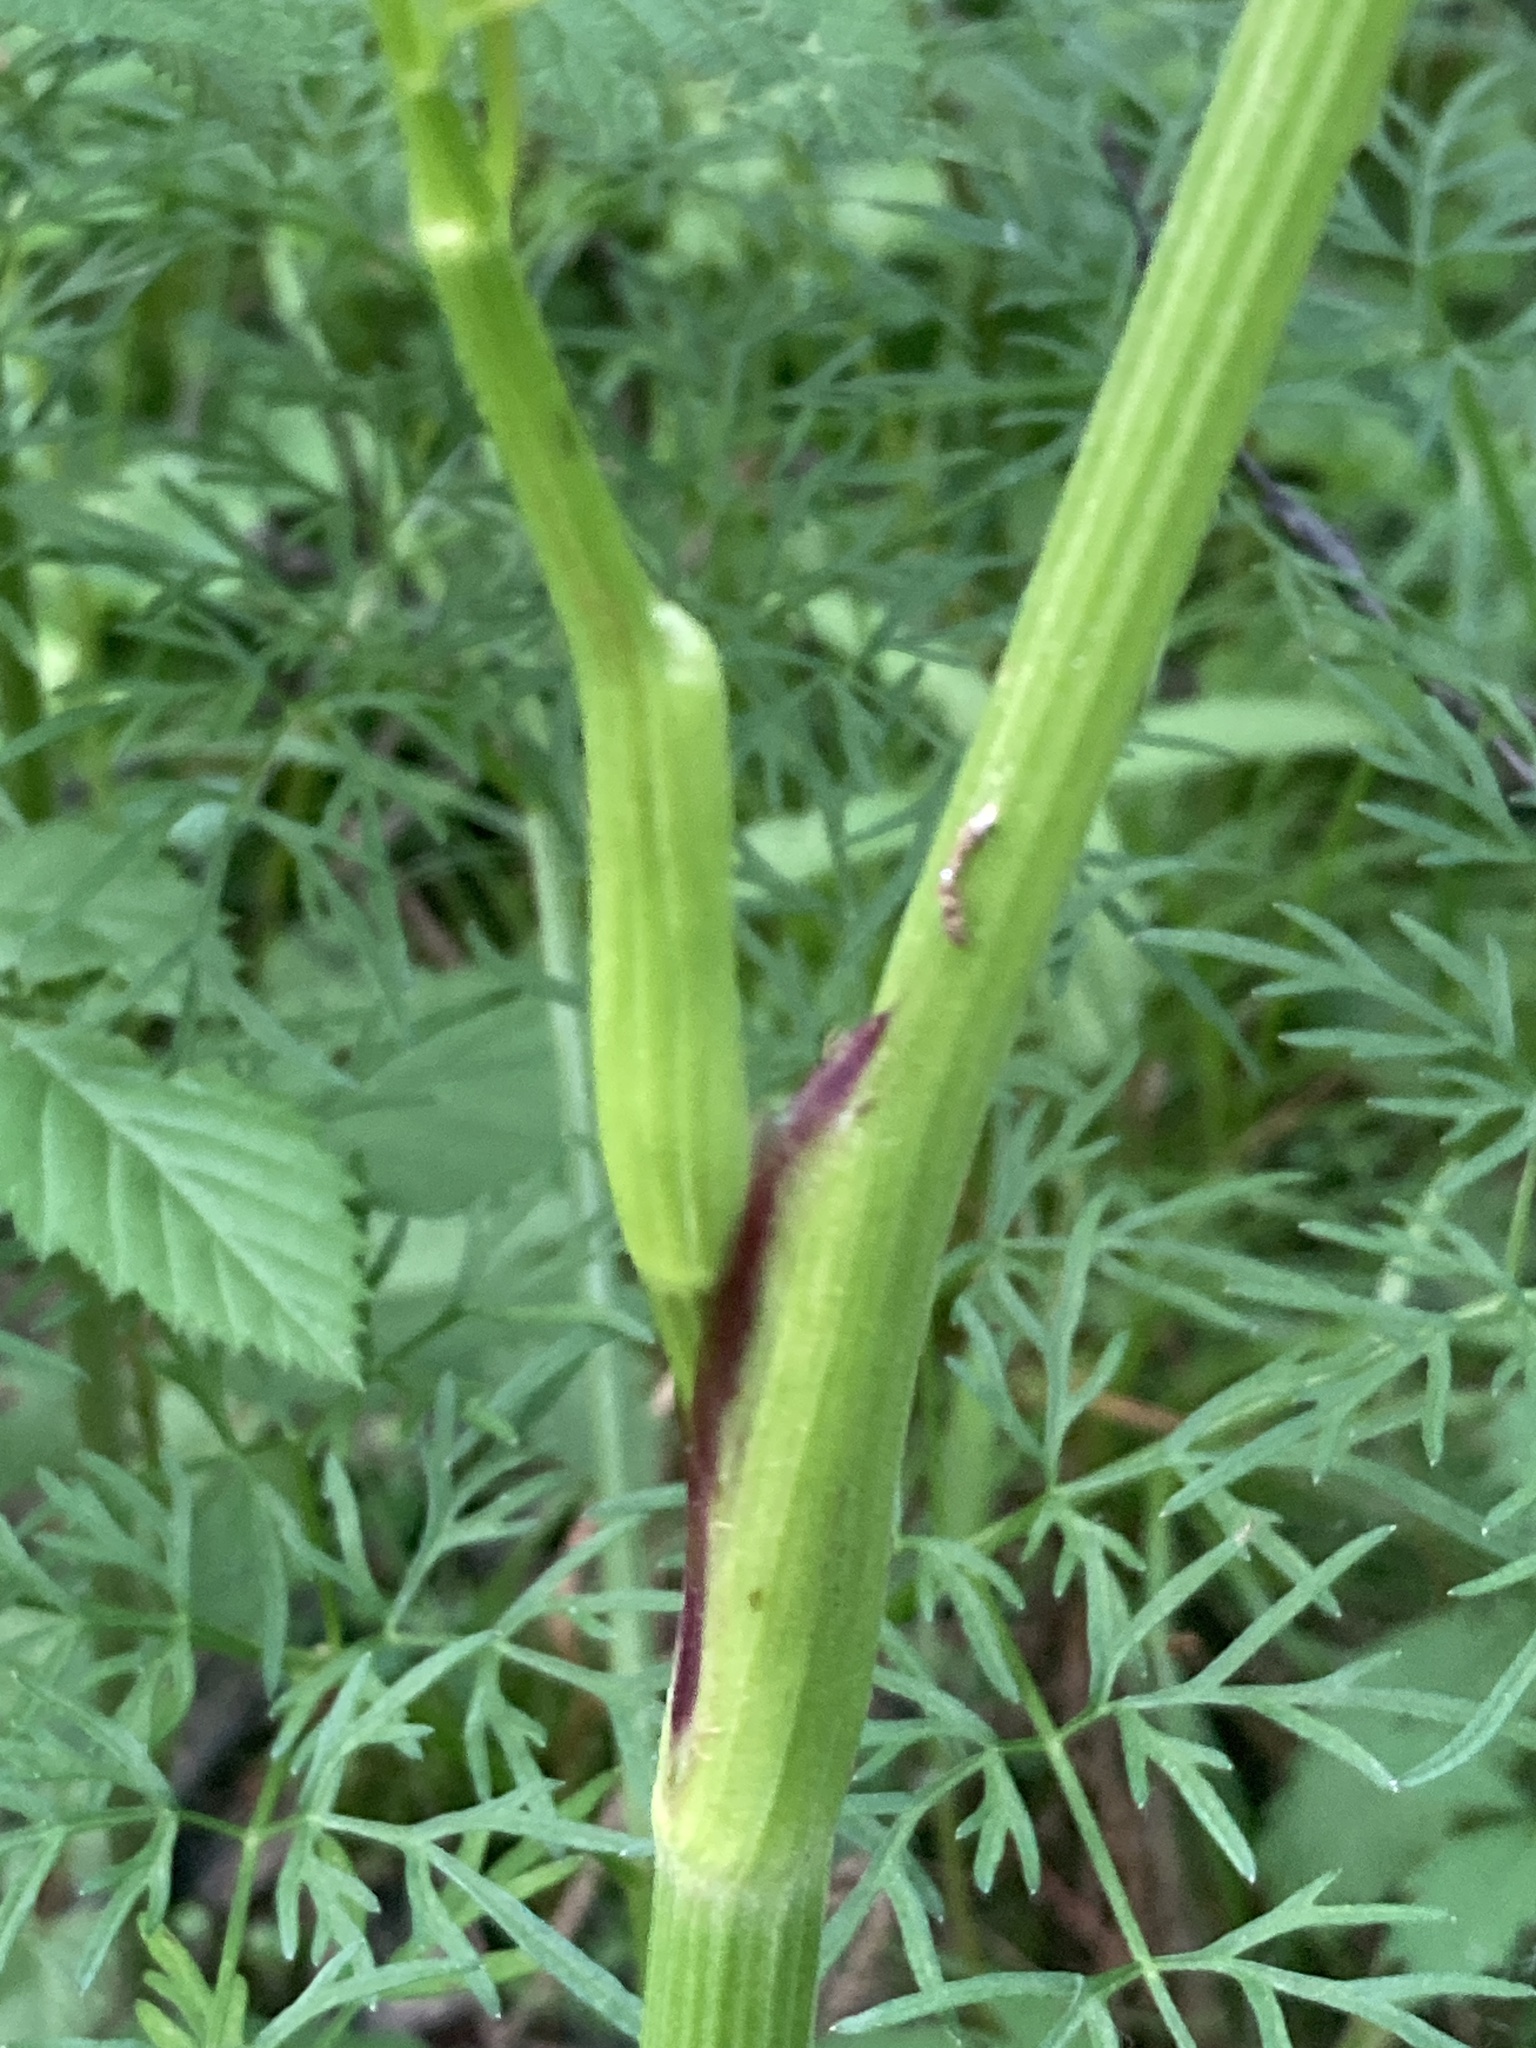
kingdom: Plantae
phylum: Tracheophyta
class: Magnoliopsida
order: Apiales
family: Apiaceae
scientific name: Apiaceae
